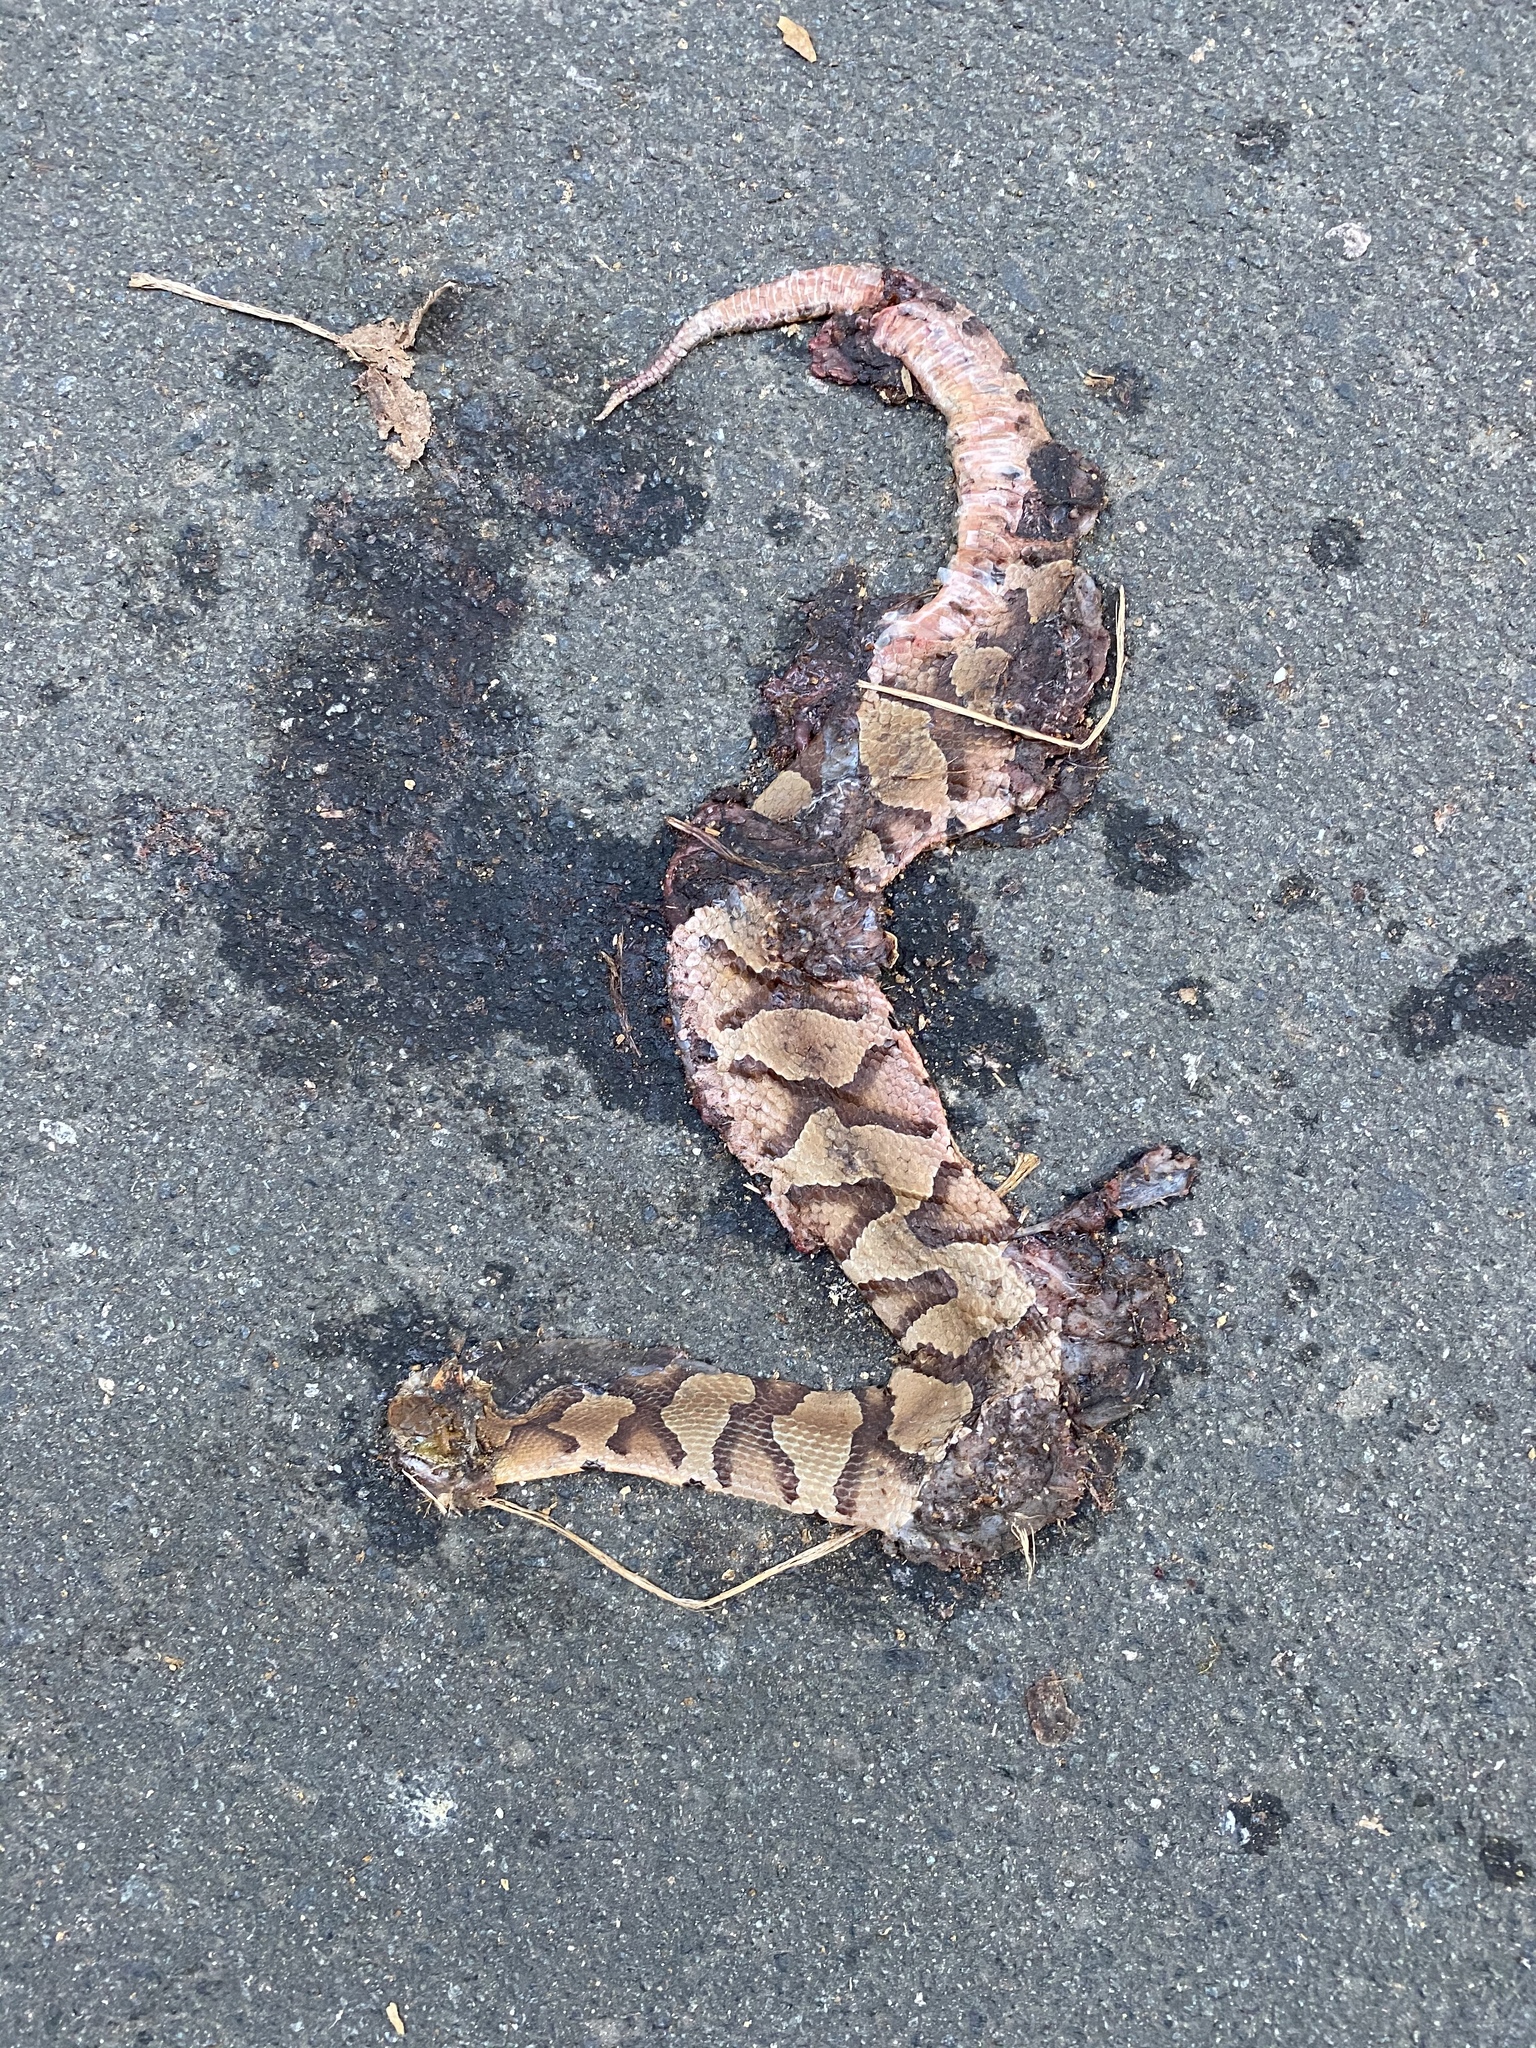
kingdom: Animalia
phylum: Chordata
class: Squamata
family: Viperidae
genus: Agkistrodon
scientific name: Agkistrodon contortrix
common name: Northern copperhead
